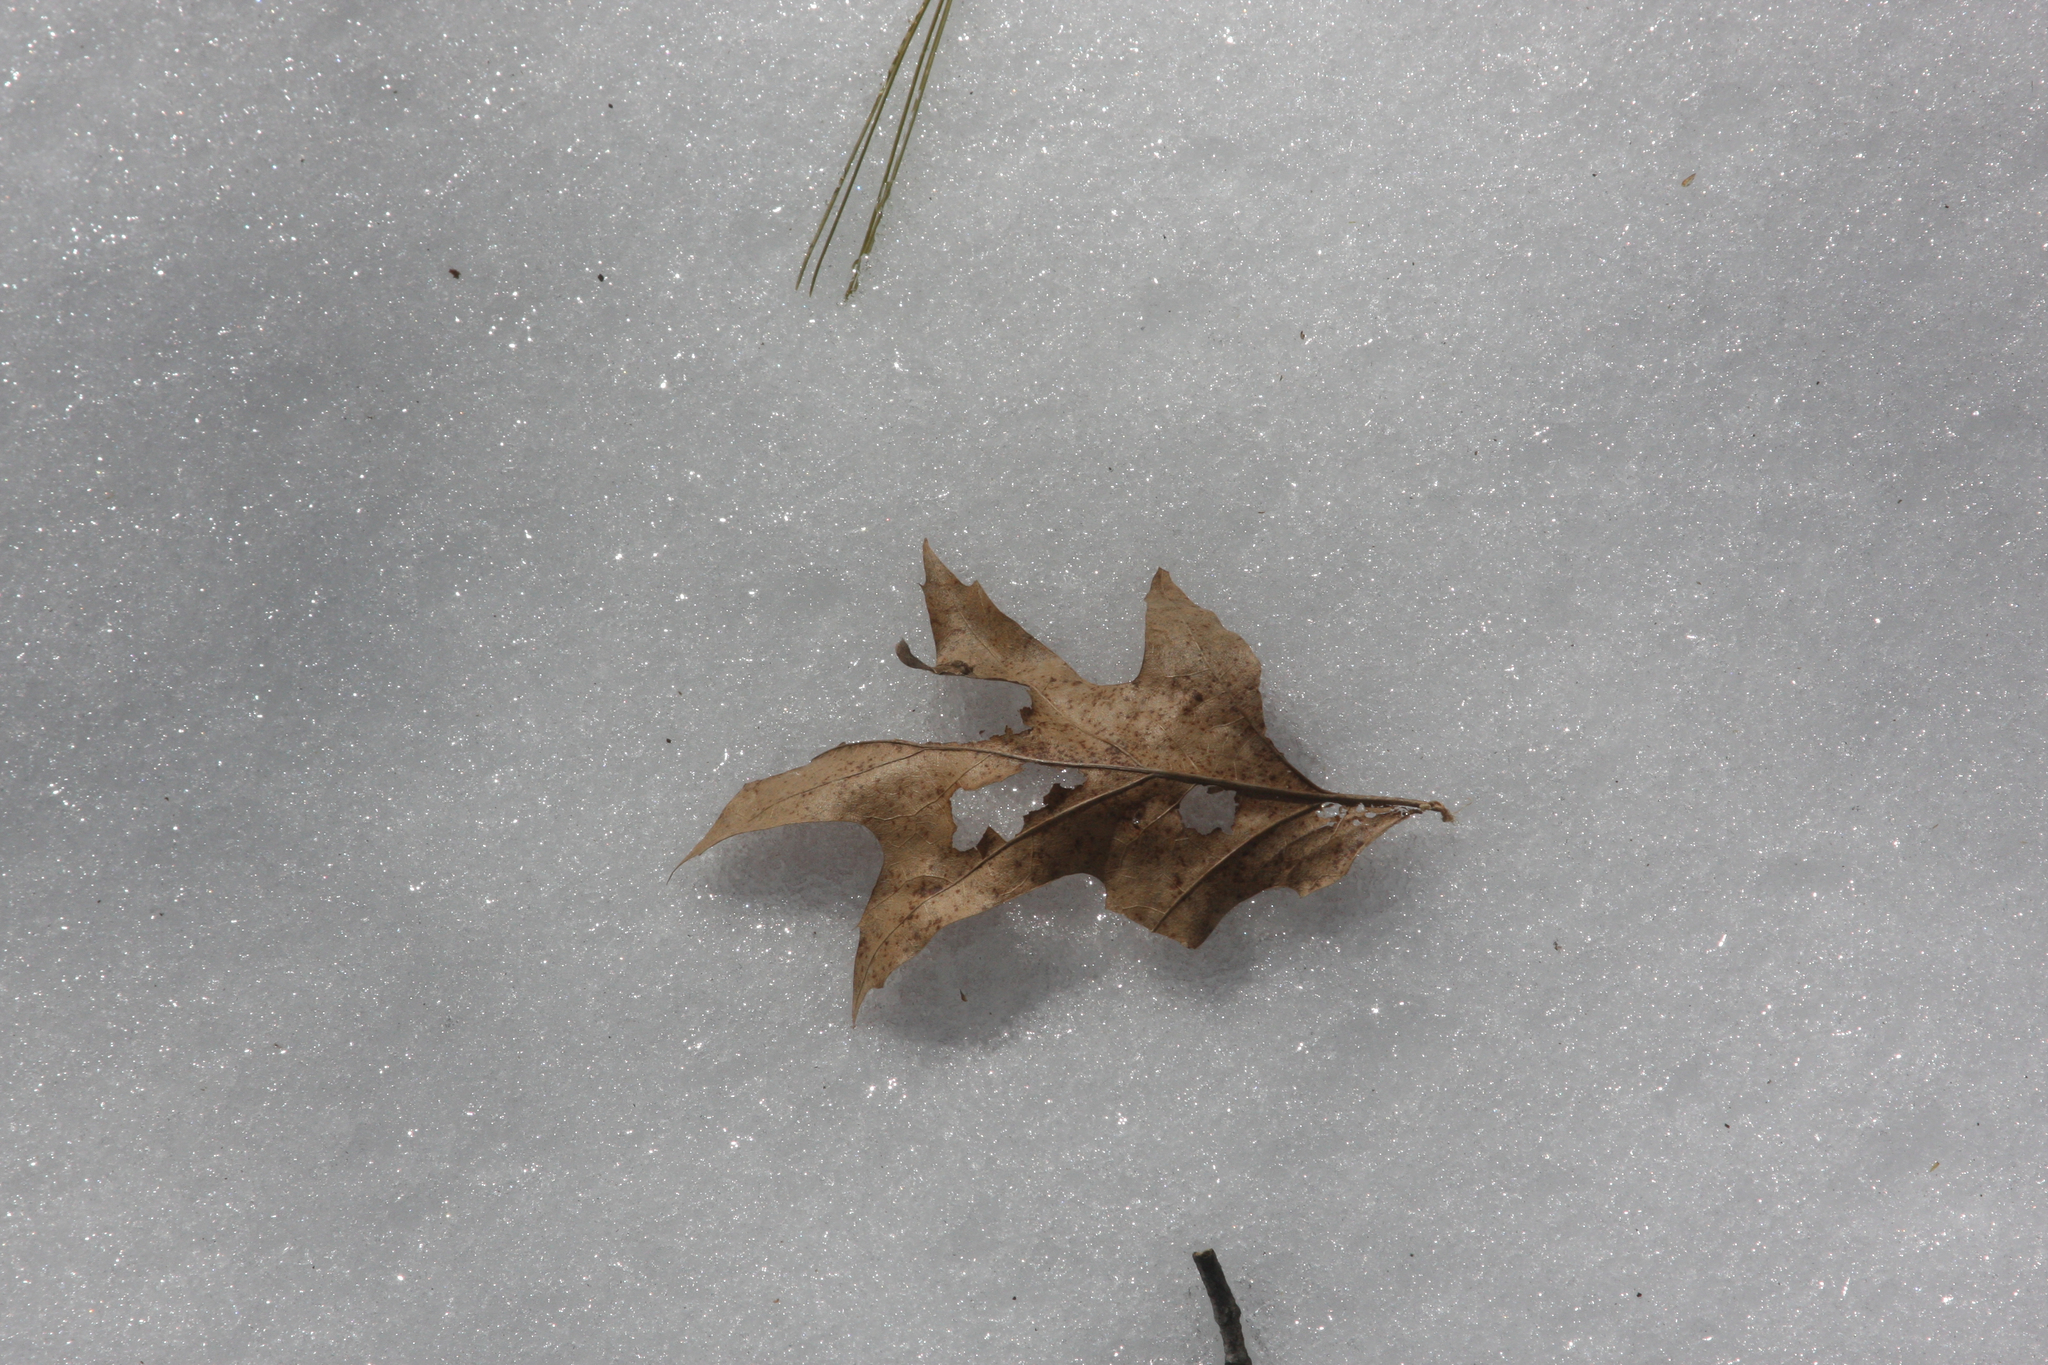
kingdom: Plantae
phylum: Tracheophyta
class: Magnoliopsida
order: Fagales
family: Fagaceae
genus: Quercus
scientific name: Quercus rubra
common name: Red oak
